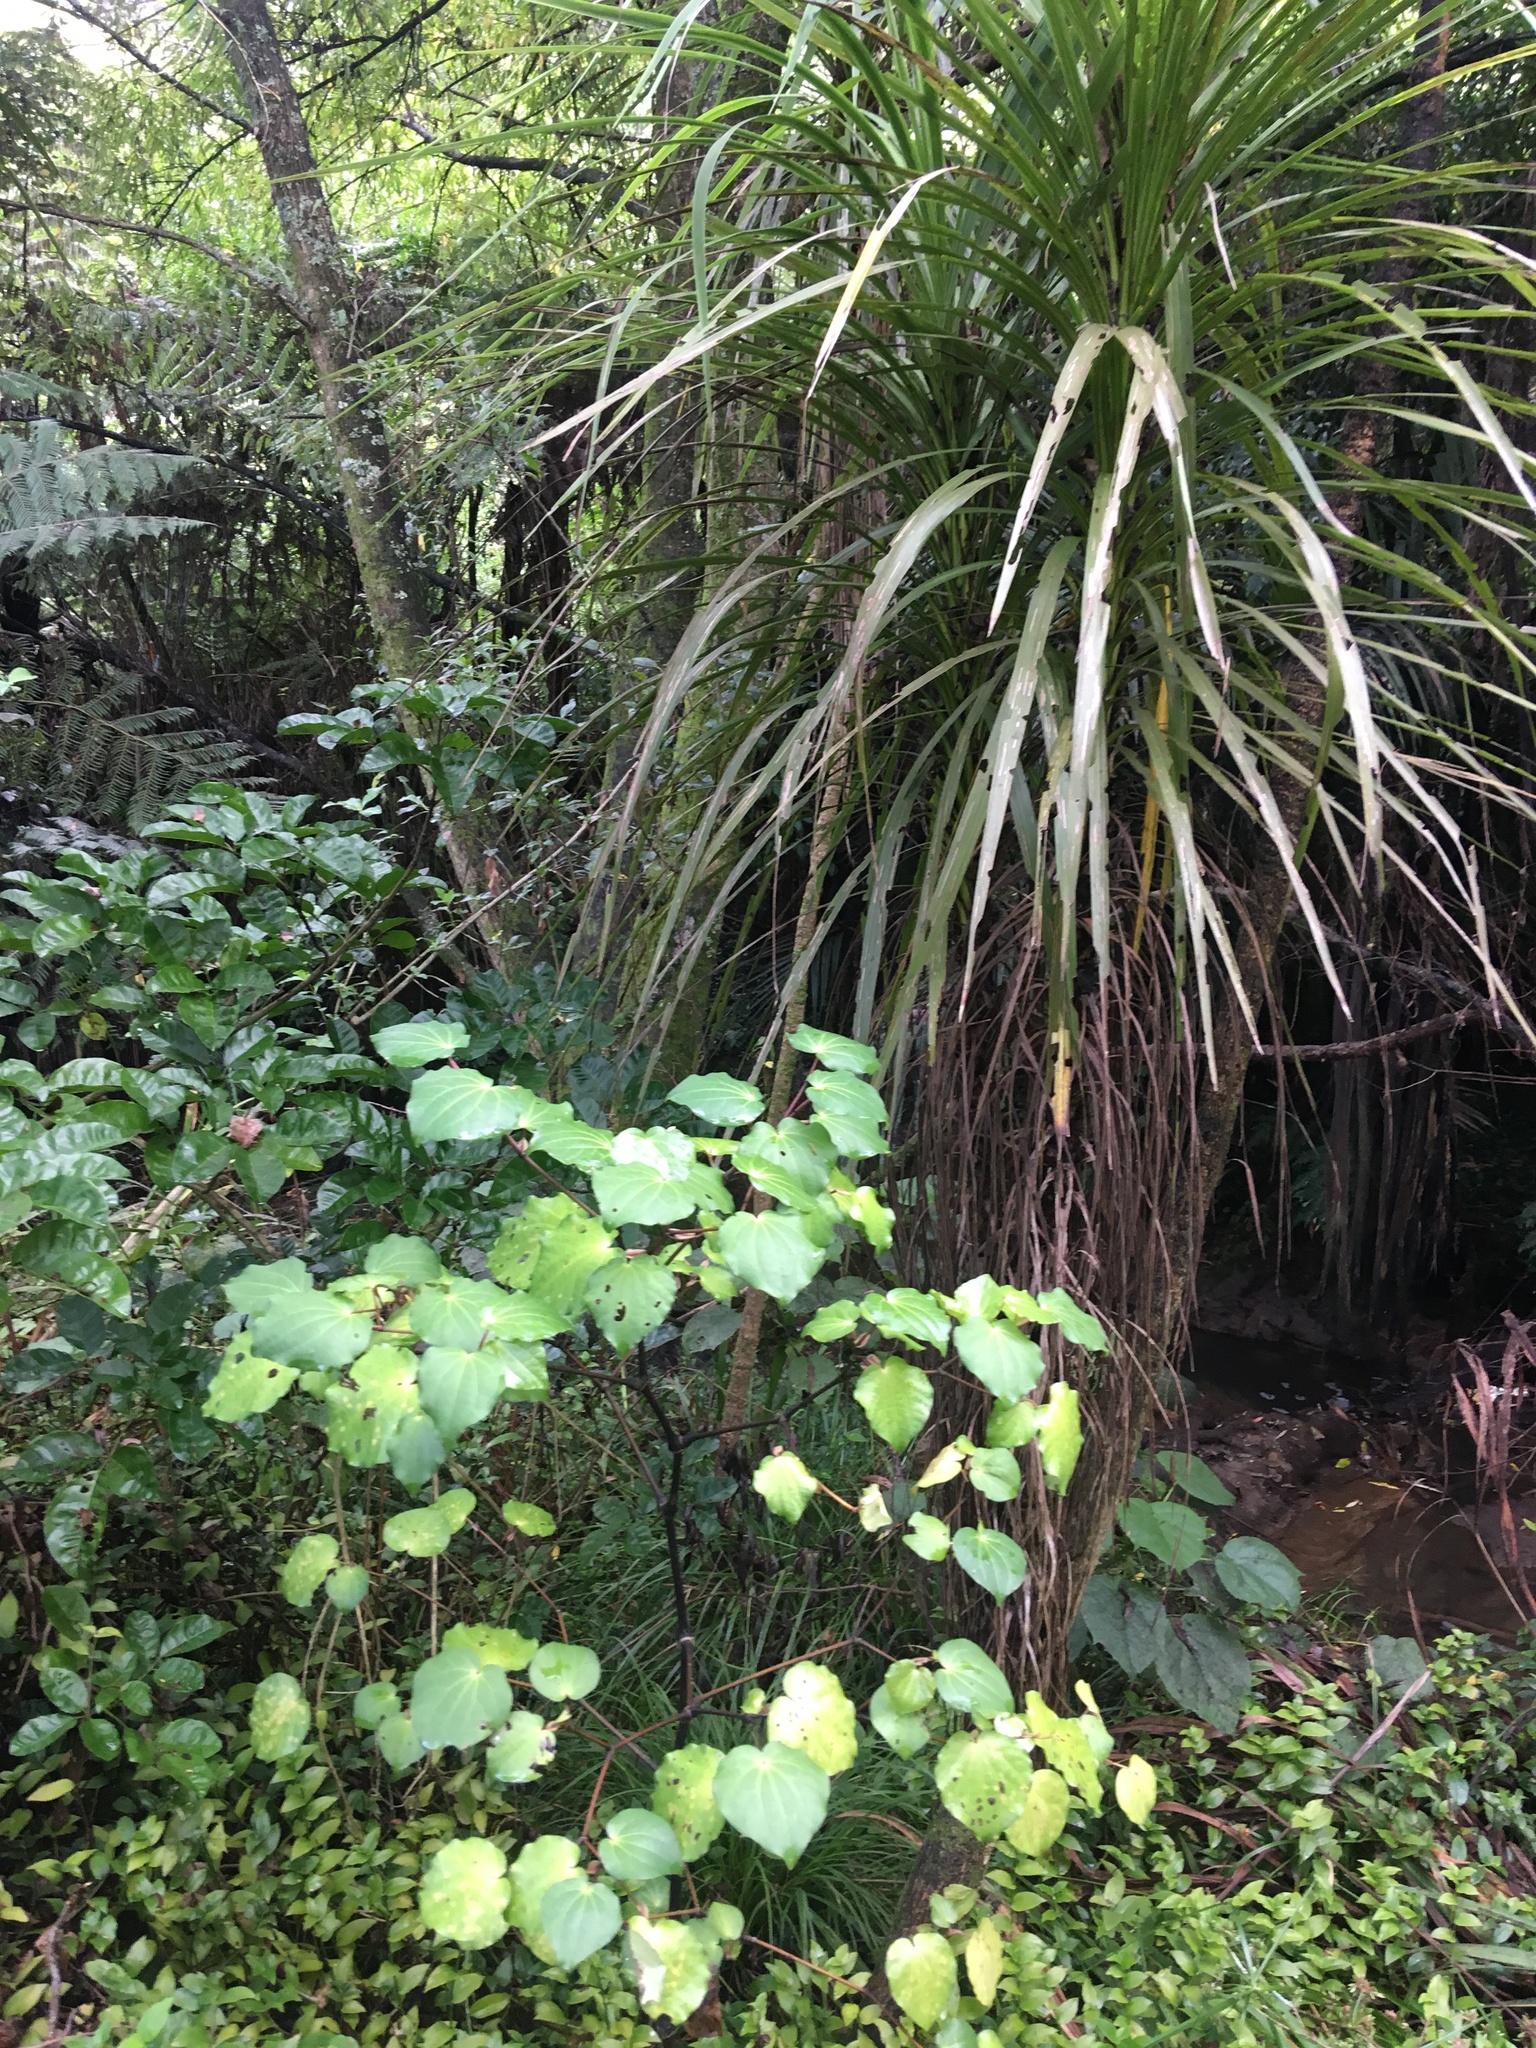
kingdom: Plantae
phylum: Tracheophyta
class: Magnoliopsida
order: Piperales
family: Piperaceae
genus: Macropiper
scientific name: Macropiper excelsum
